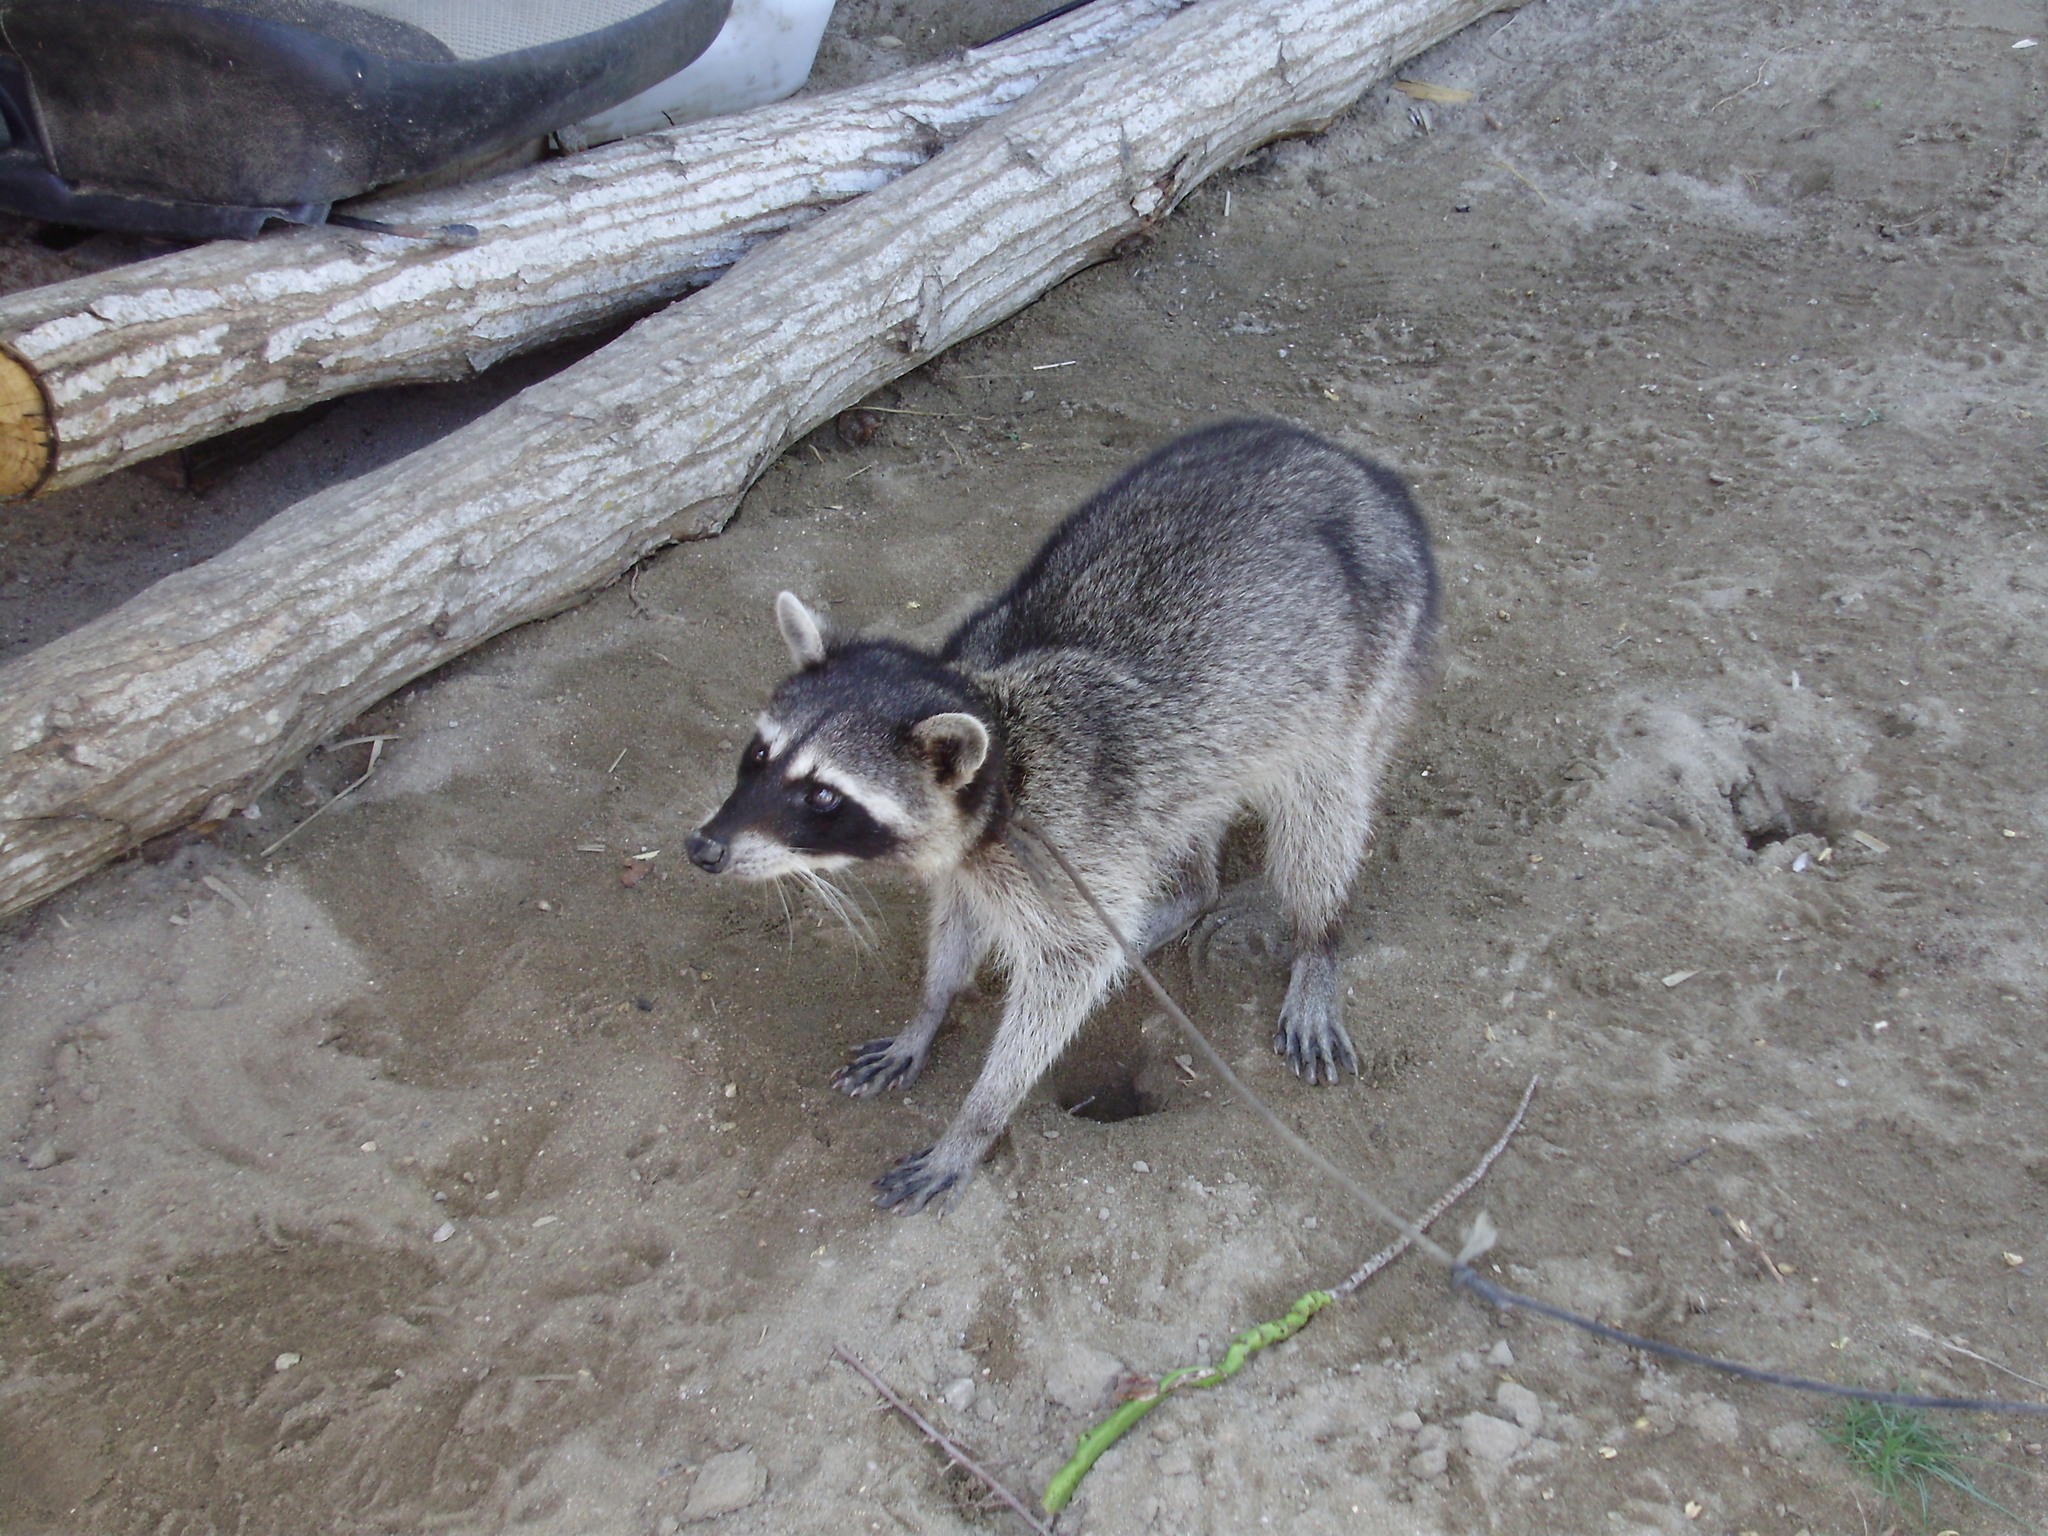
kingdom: Animalia
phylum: Chordata
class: Mammalia
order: Carnivora
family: Procyonidae
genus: Procyon
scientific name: Procyon lotor
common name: Raccoon
